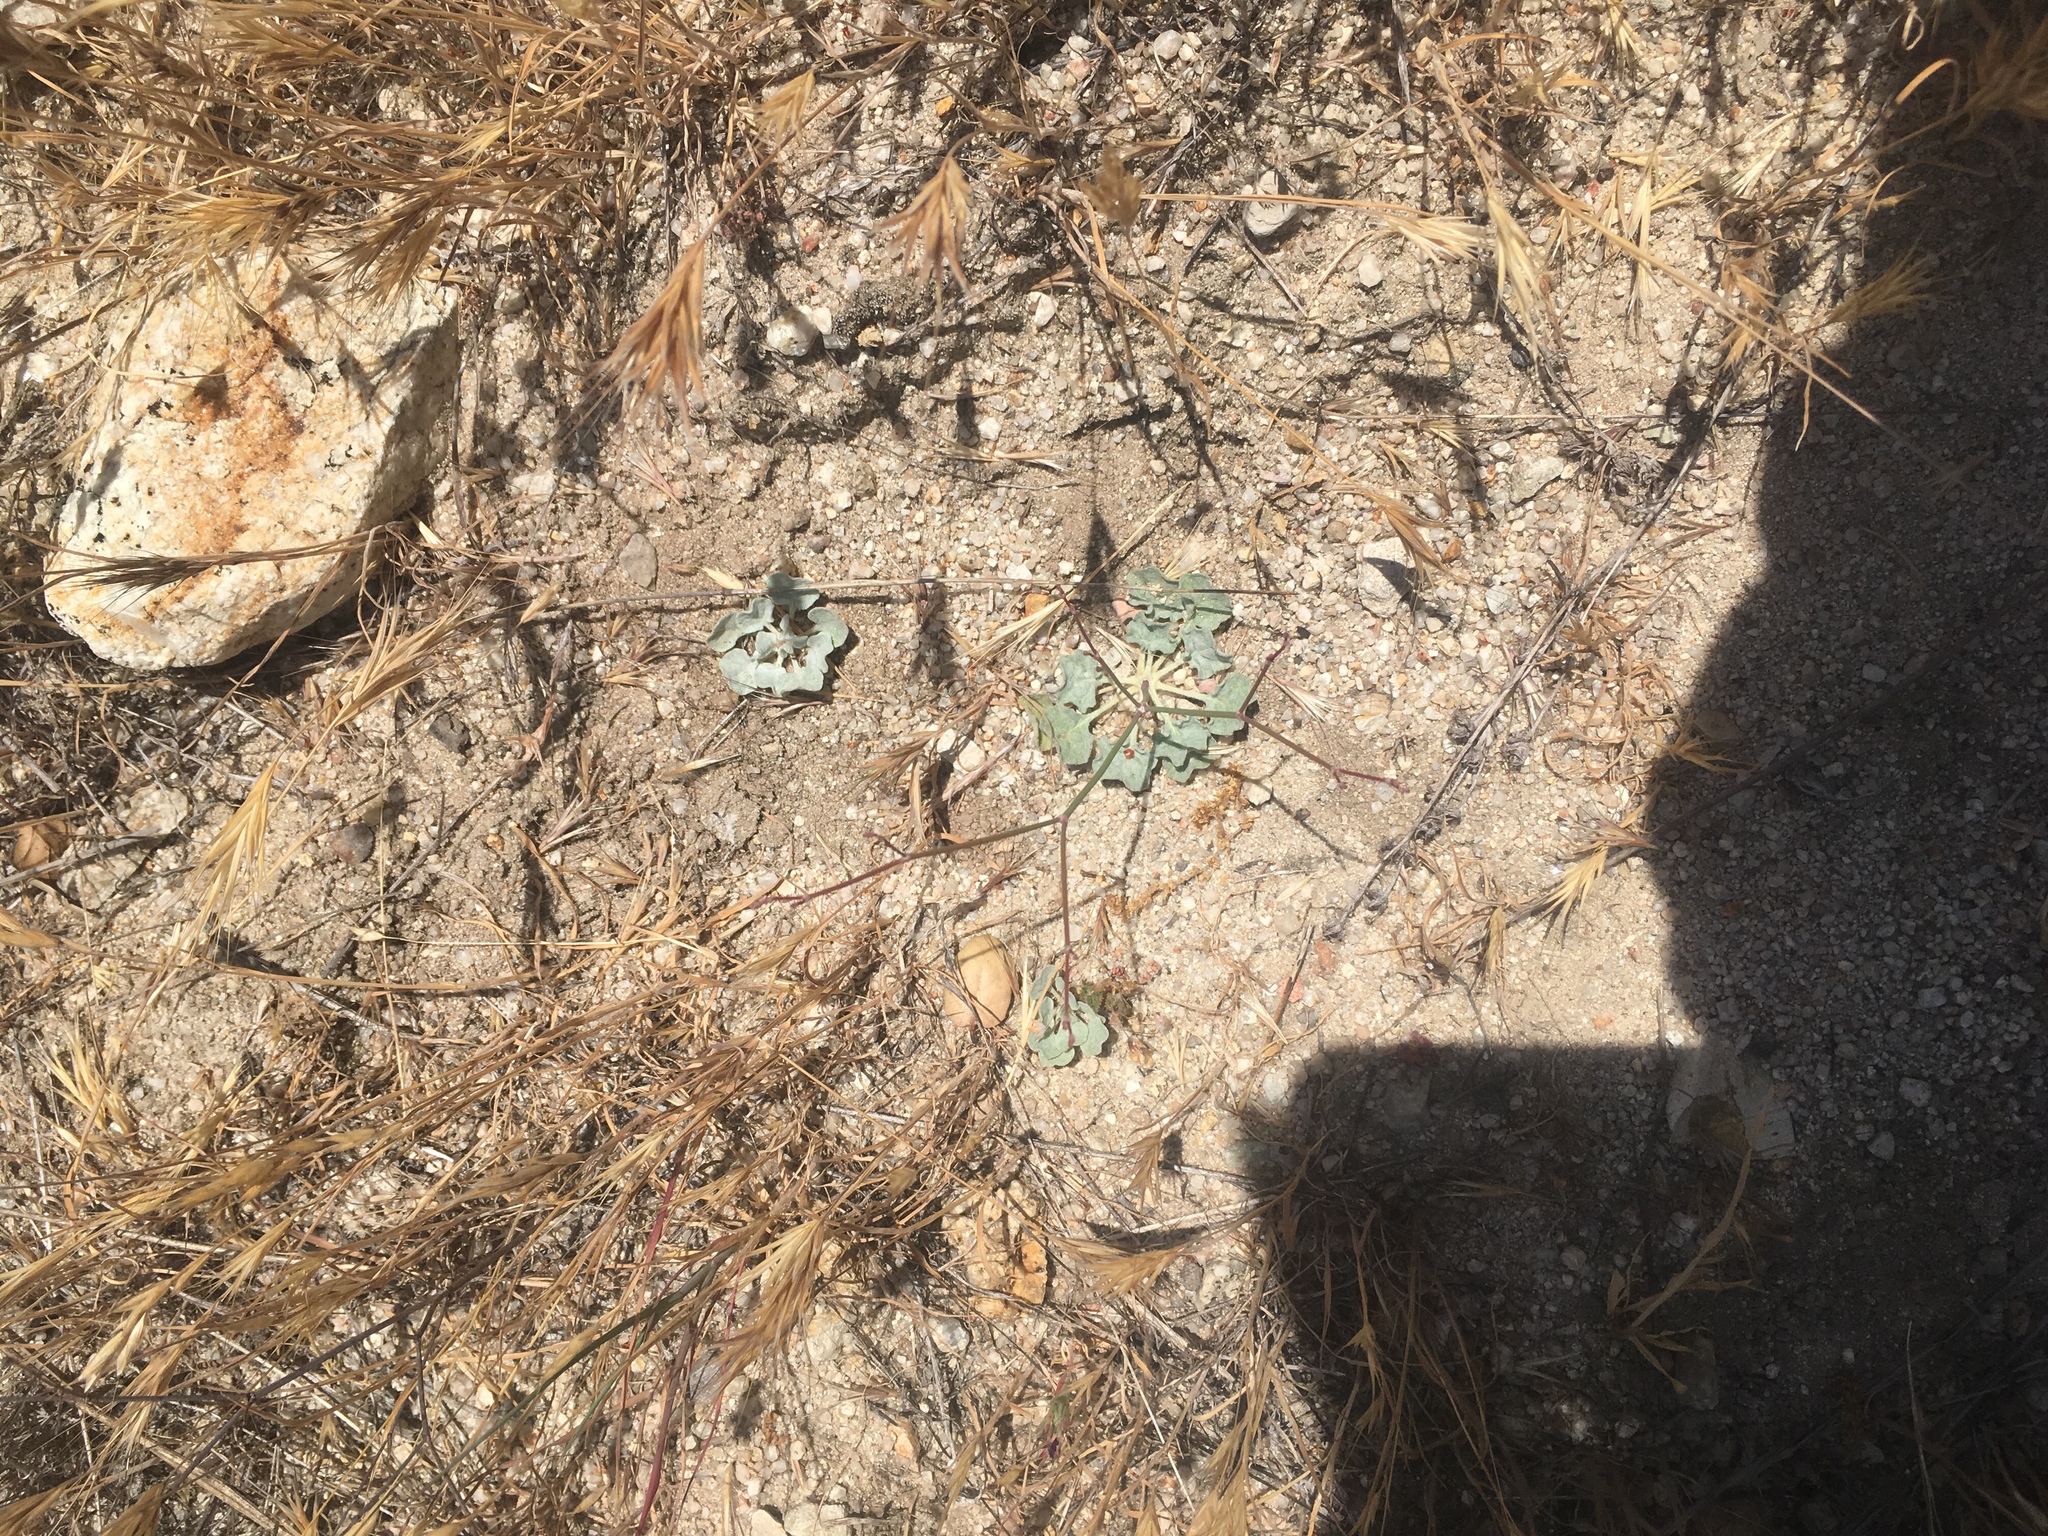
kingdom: Plantae
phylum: Tracheophyta
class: Magnoliopsida
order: Caryophyllales
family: Polygonaceae
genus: Eriogonum
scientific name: Eriogonum elegans
